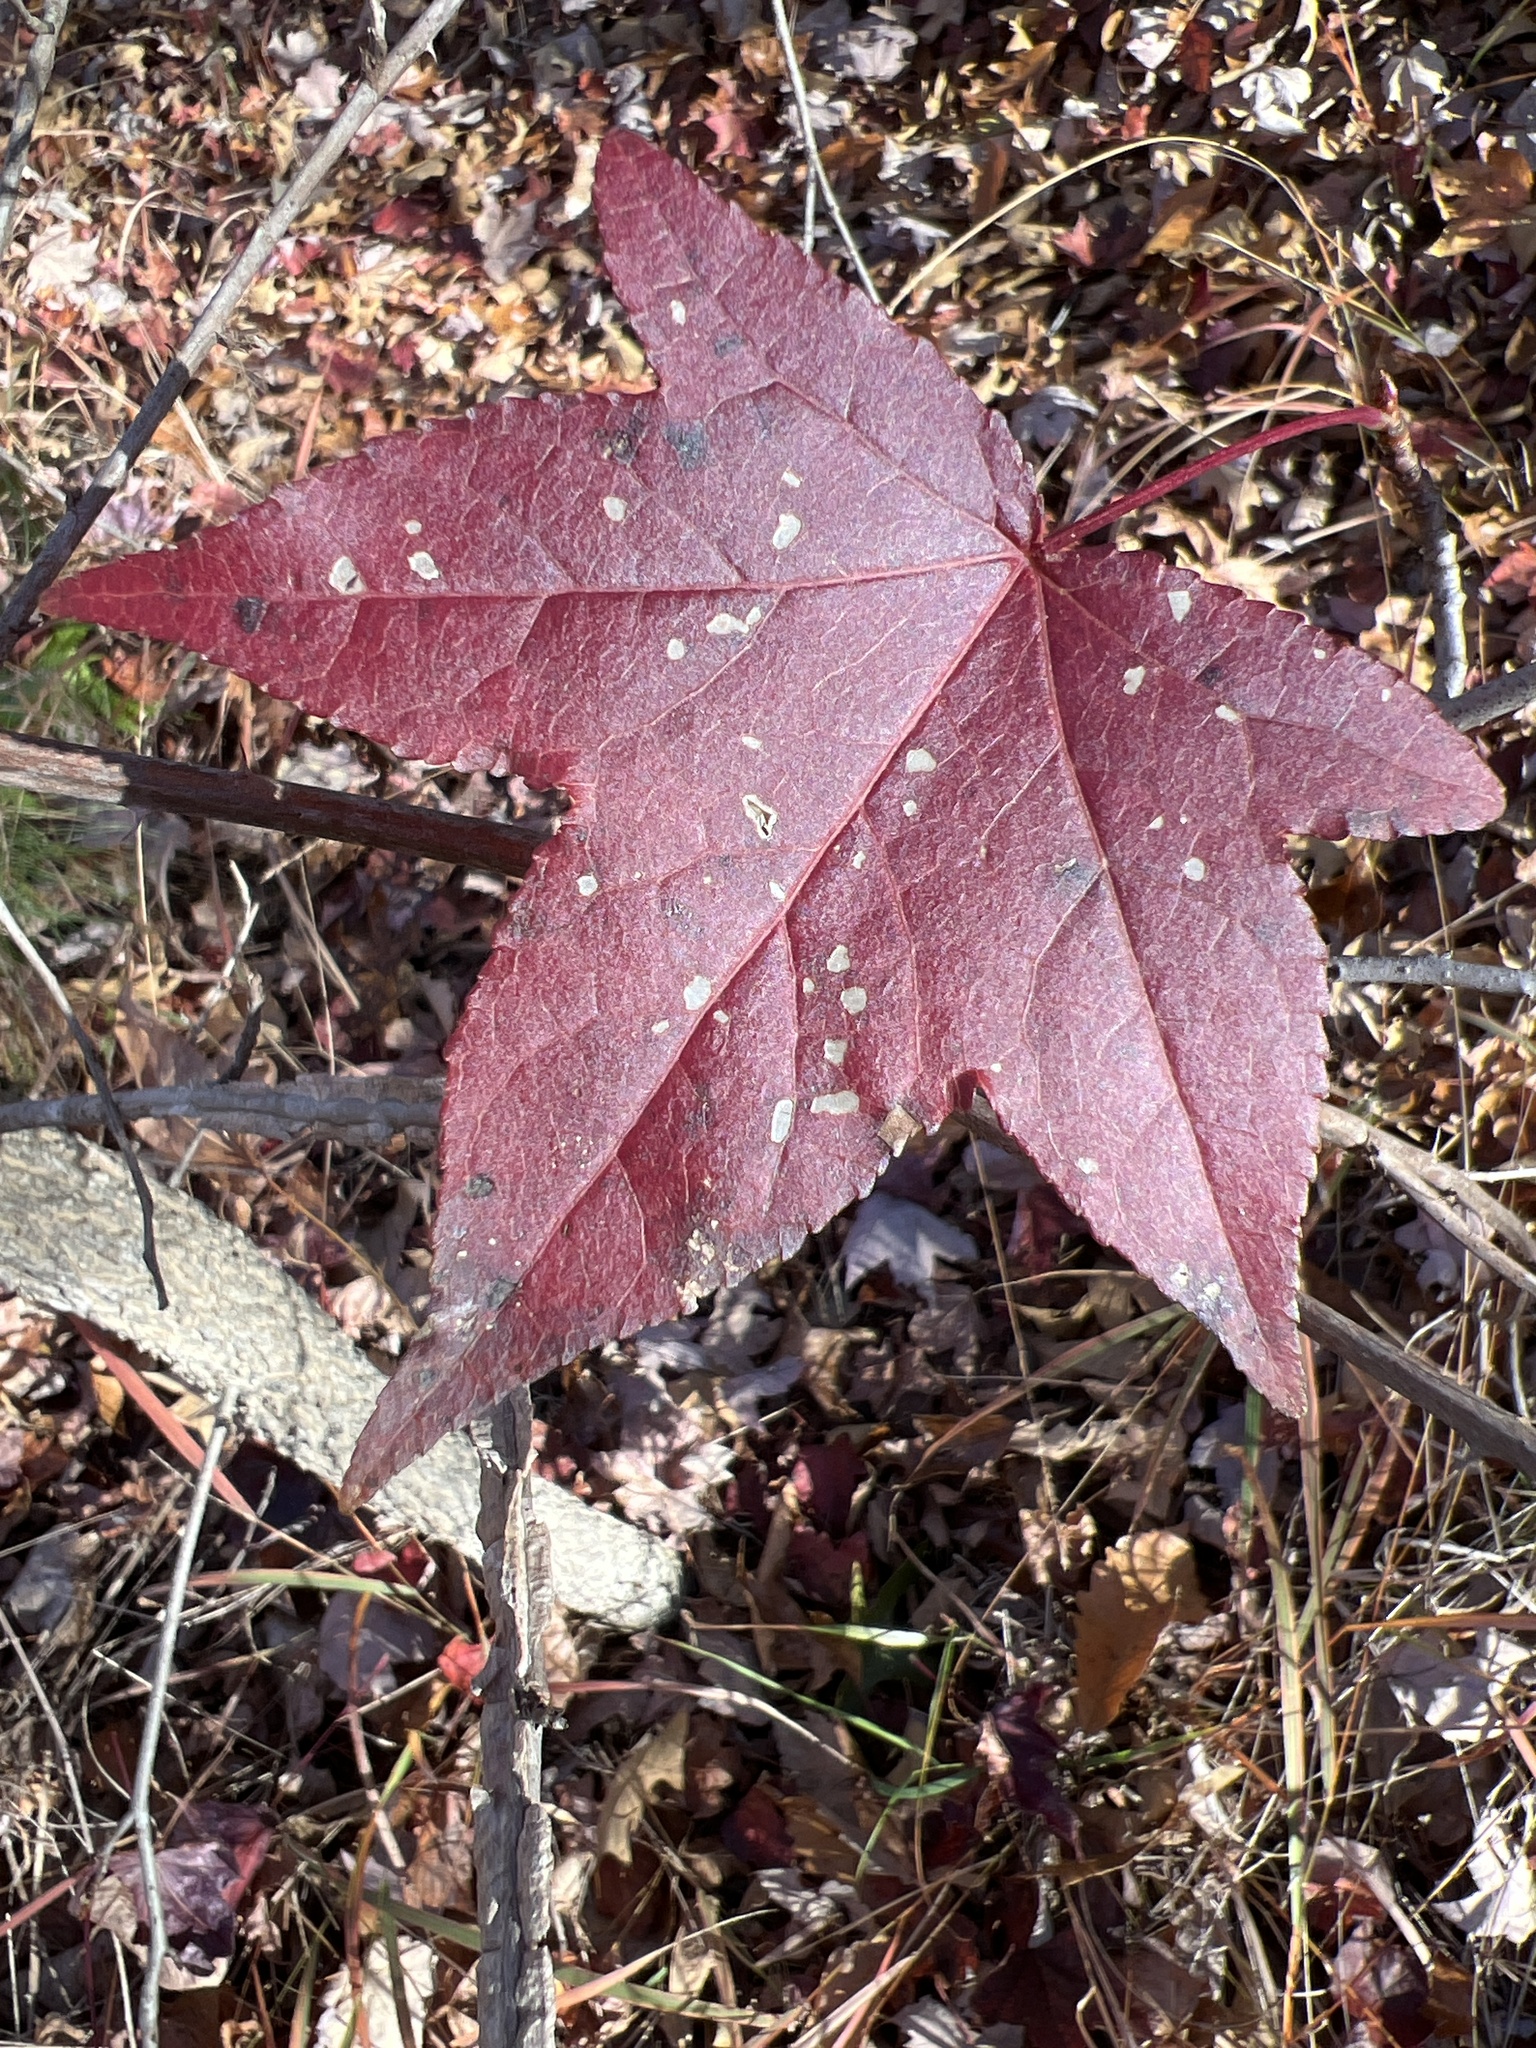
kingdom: Plantae
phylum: Tracheophyta
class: Magnoliopsida
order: Saxifragales
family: Altingiaceae
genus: Liquidambar
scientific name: Liquidambar styraciflua
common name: Sweet gum
